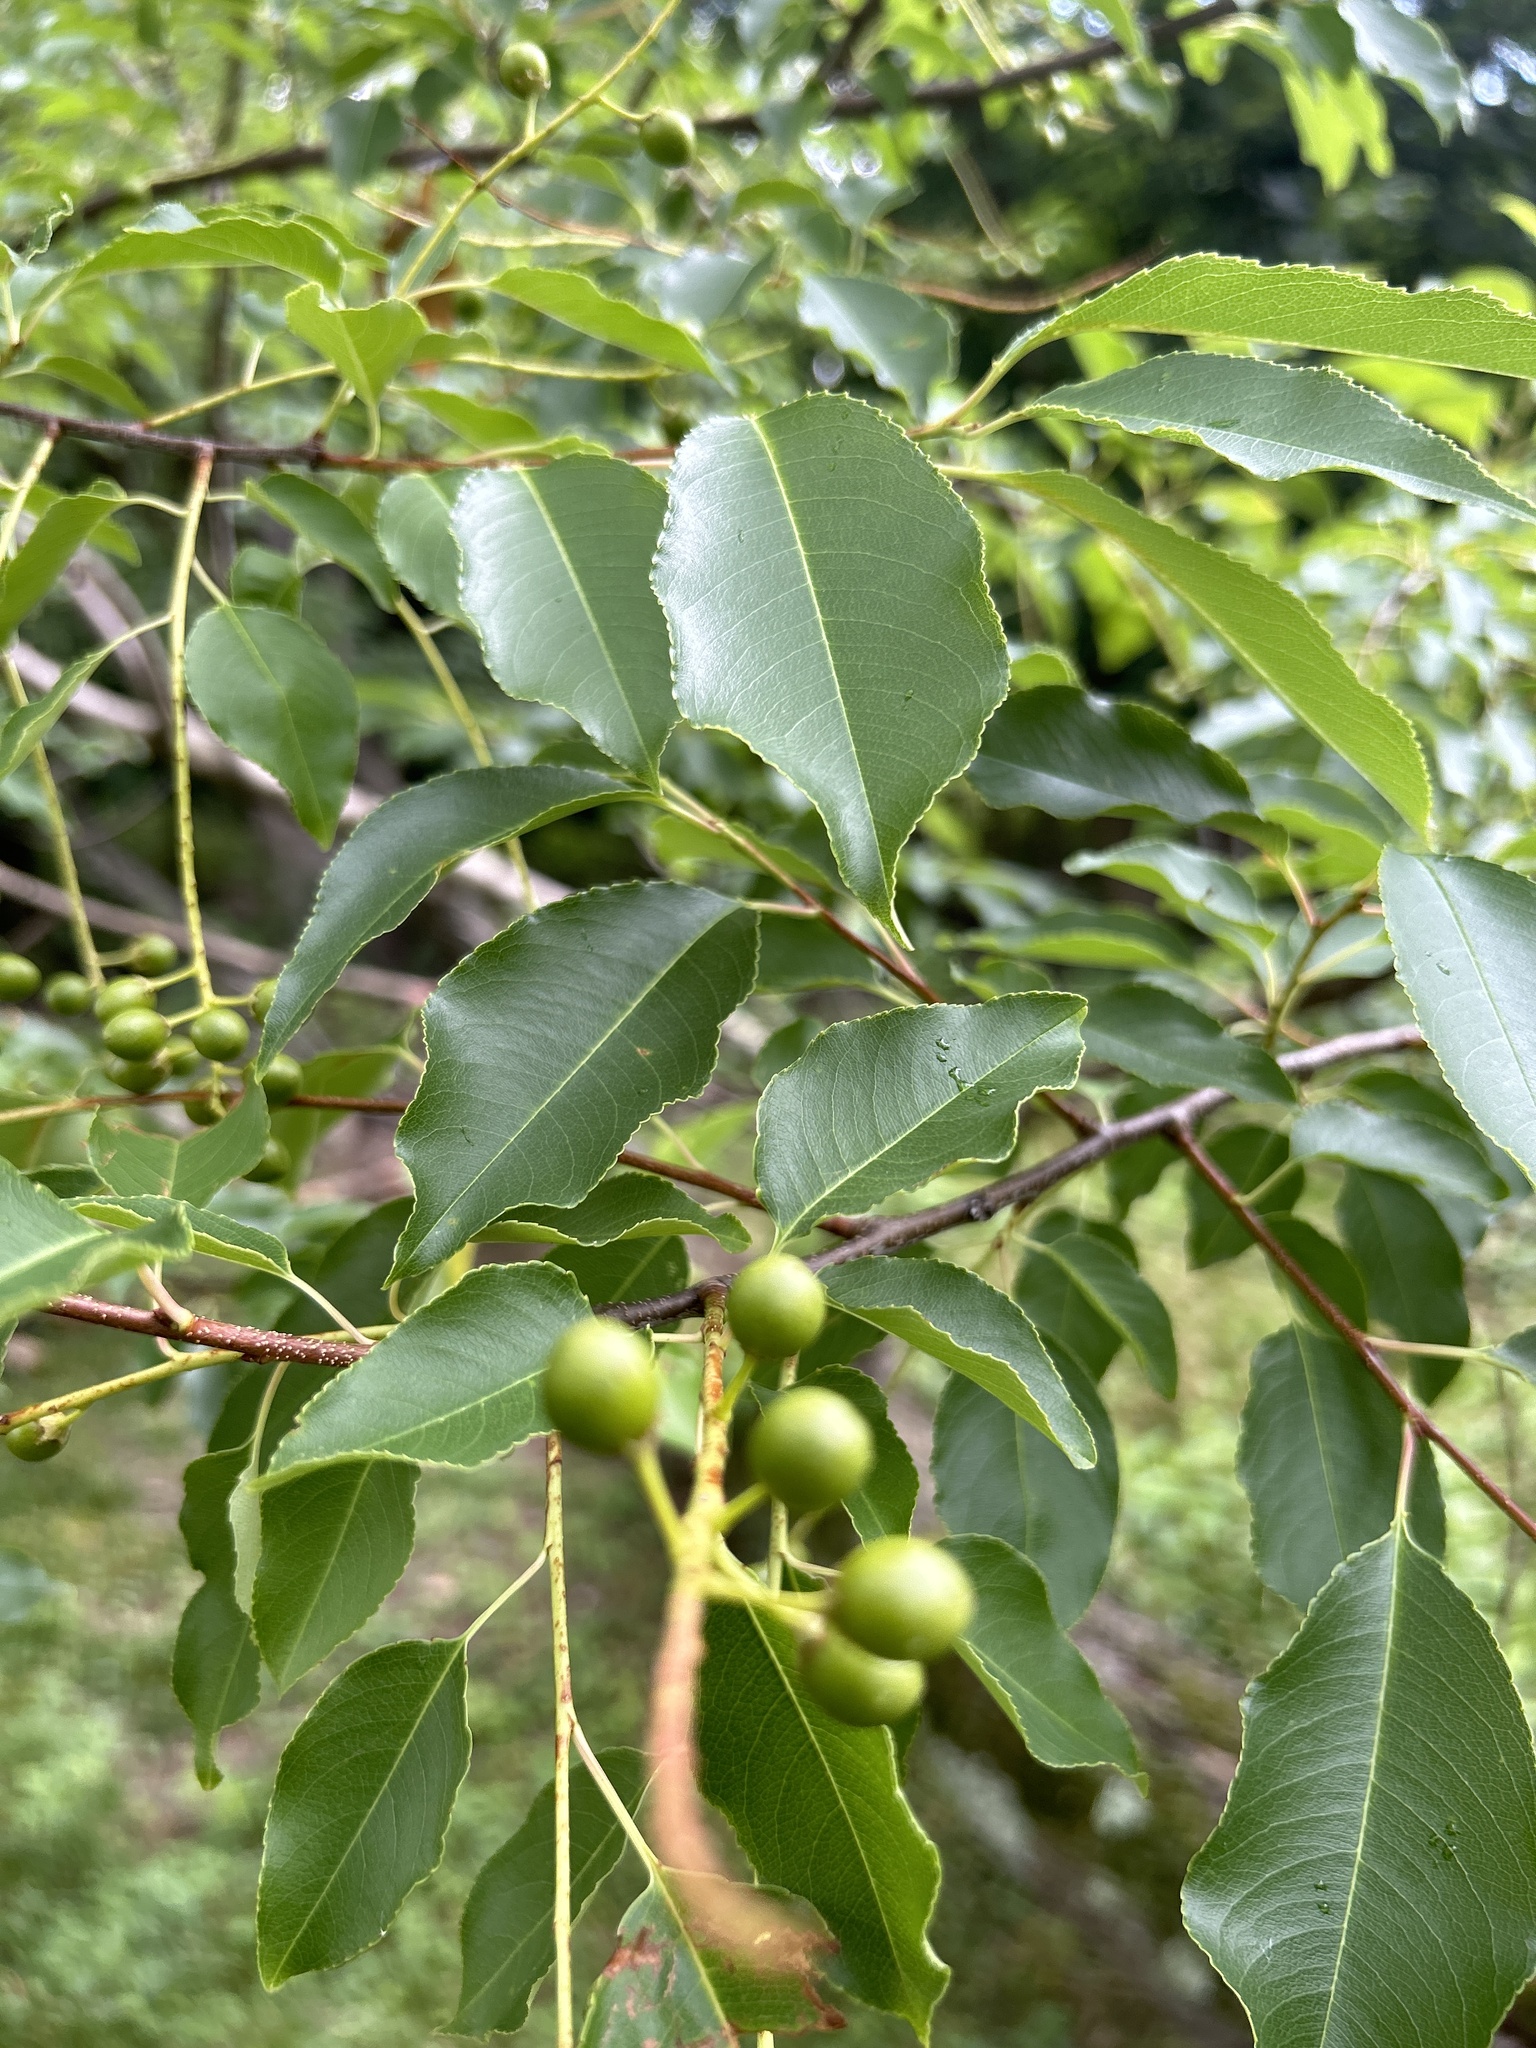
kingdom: Plantae
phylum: Tracheophyta
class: Magnoliopsida
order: Rosales
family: Rosaceae
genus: Prunus
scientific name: Prunus serotina
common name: Black cherry
